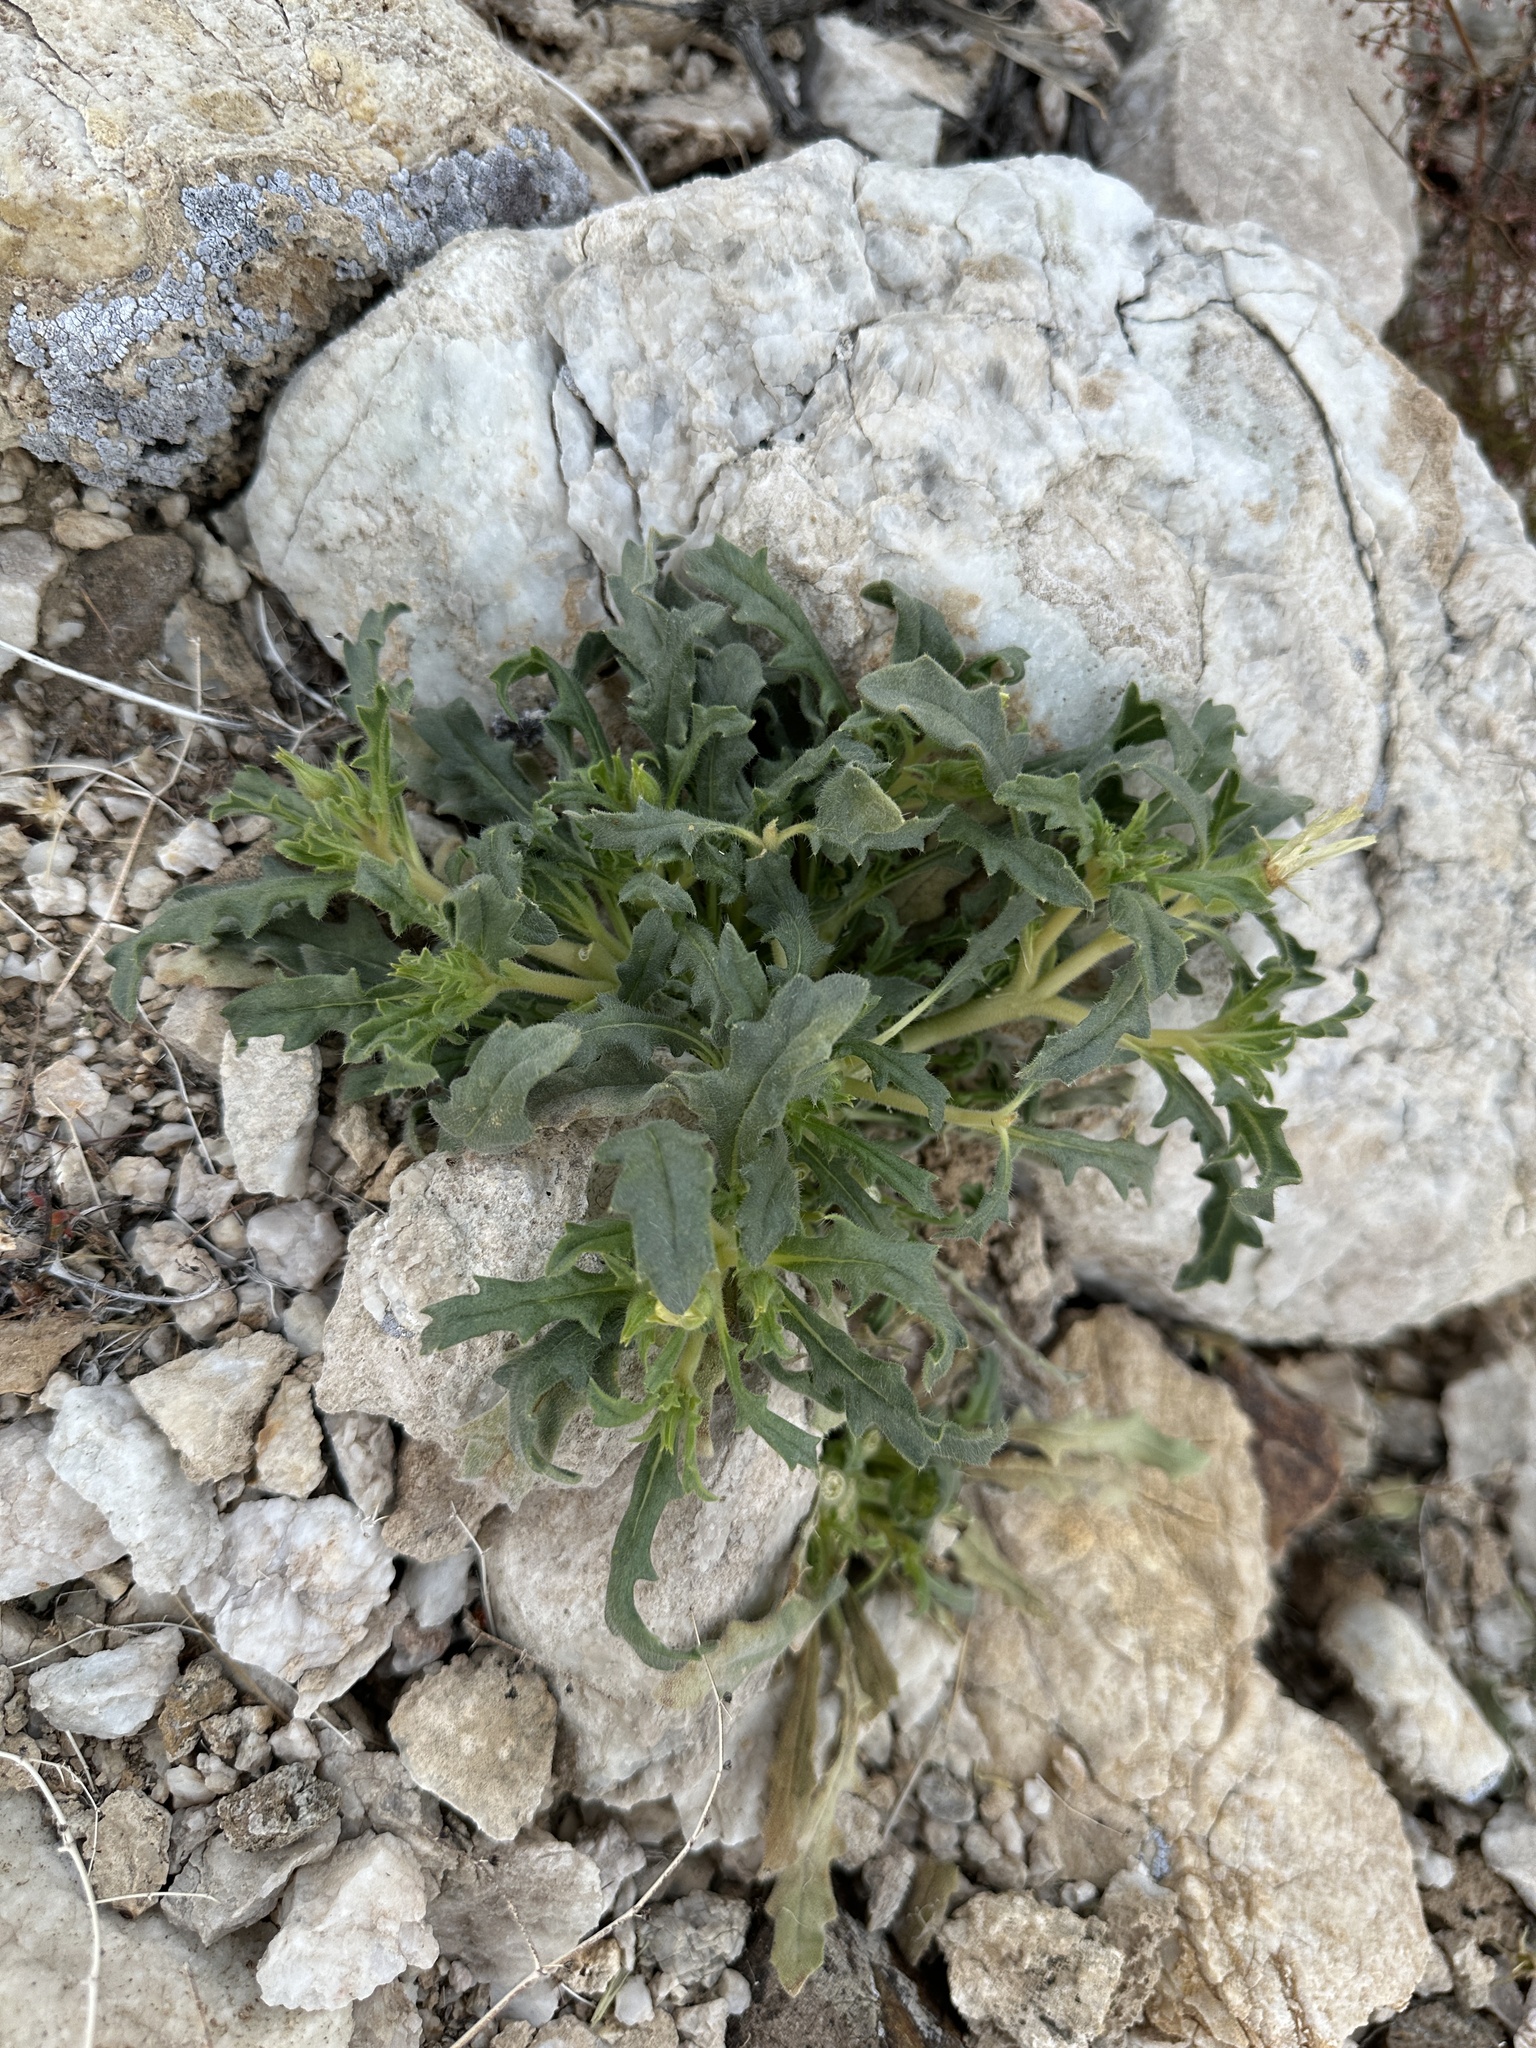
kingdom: Plantae
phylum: Tracheophyta
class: Magnoliopsida
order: Cornales
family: Loasaceae
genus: Mentzelia
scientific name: Mentzelia tridentata
